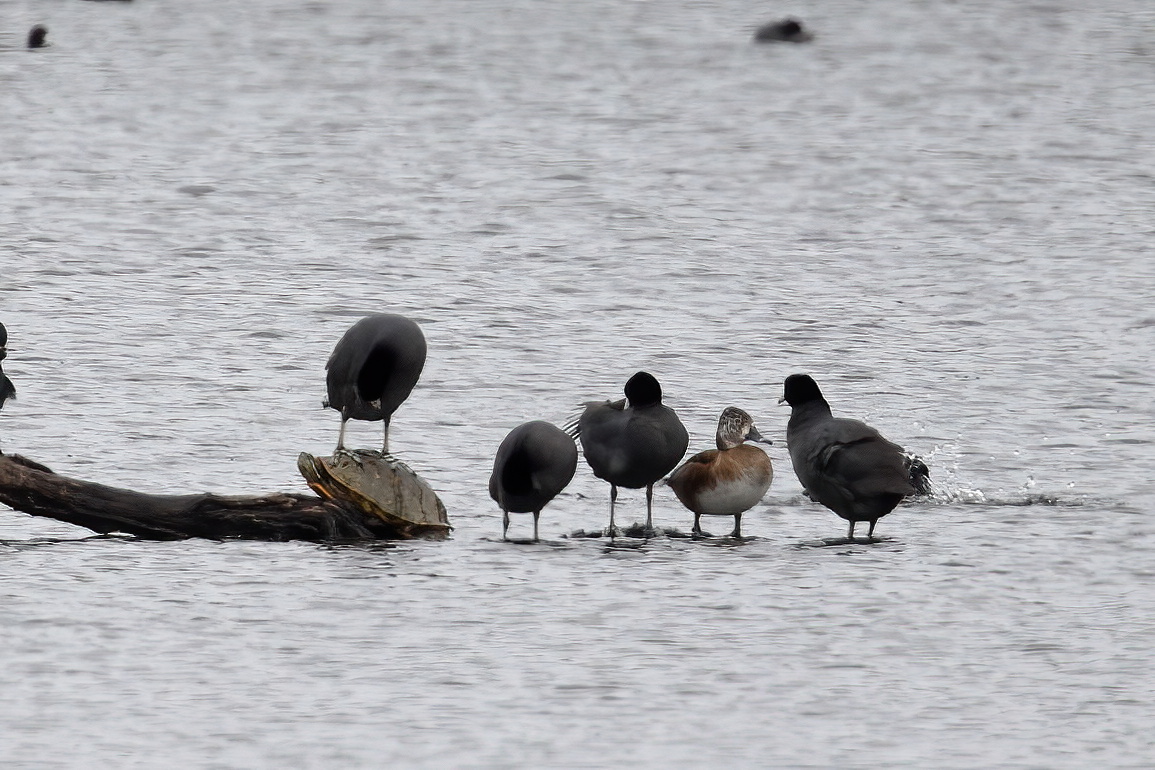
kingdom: Animalia
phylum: Chordata
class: Aves
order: Gruiformes
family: Rallidae
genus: Fulica
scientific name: Fulica americana
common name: American coot
